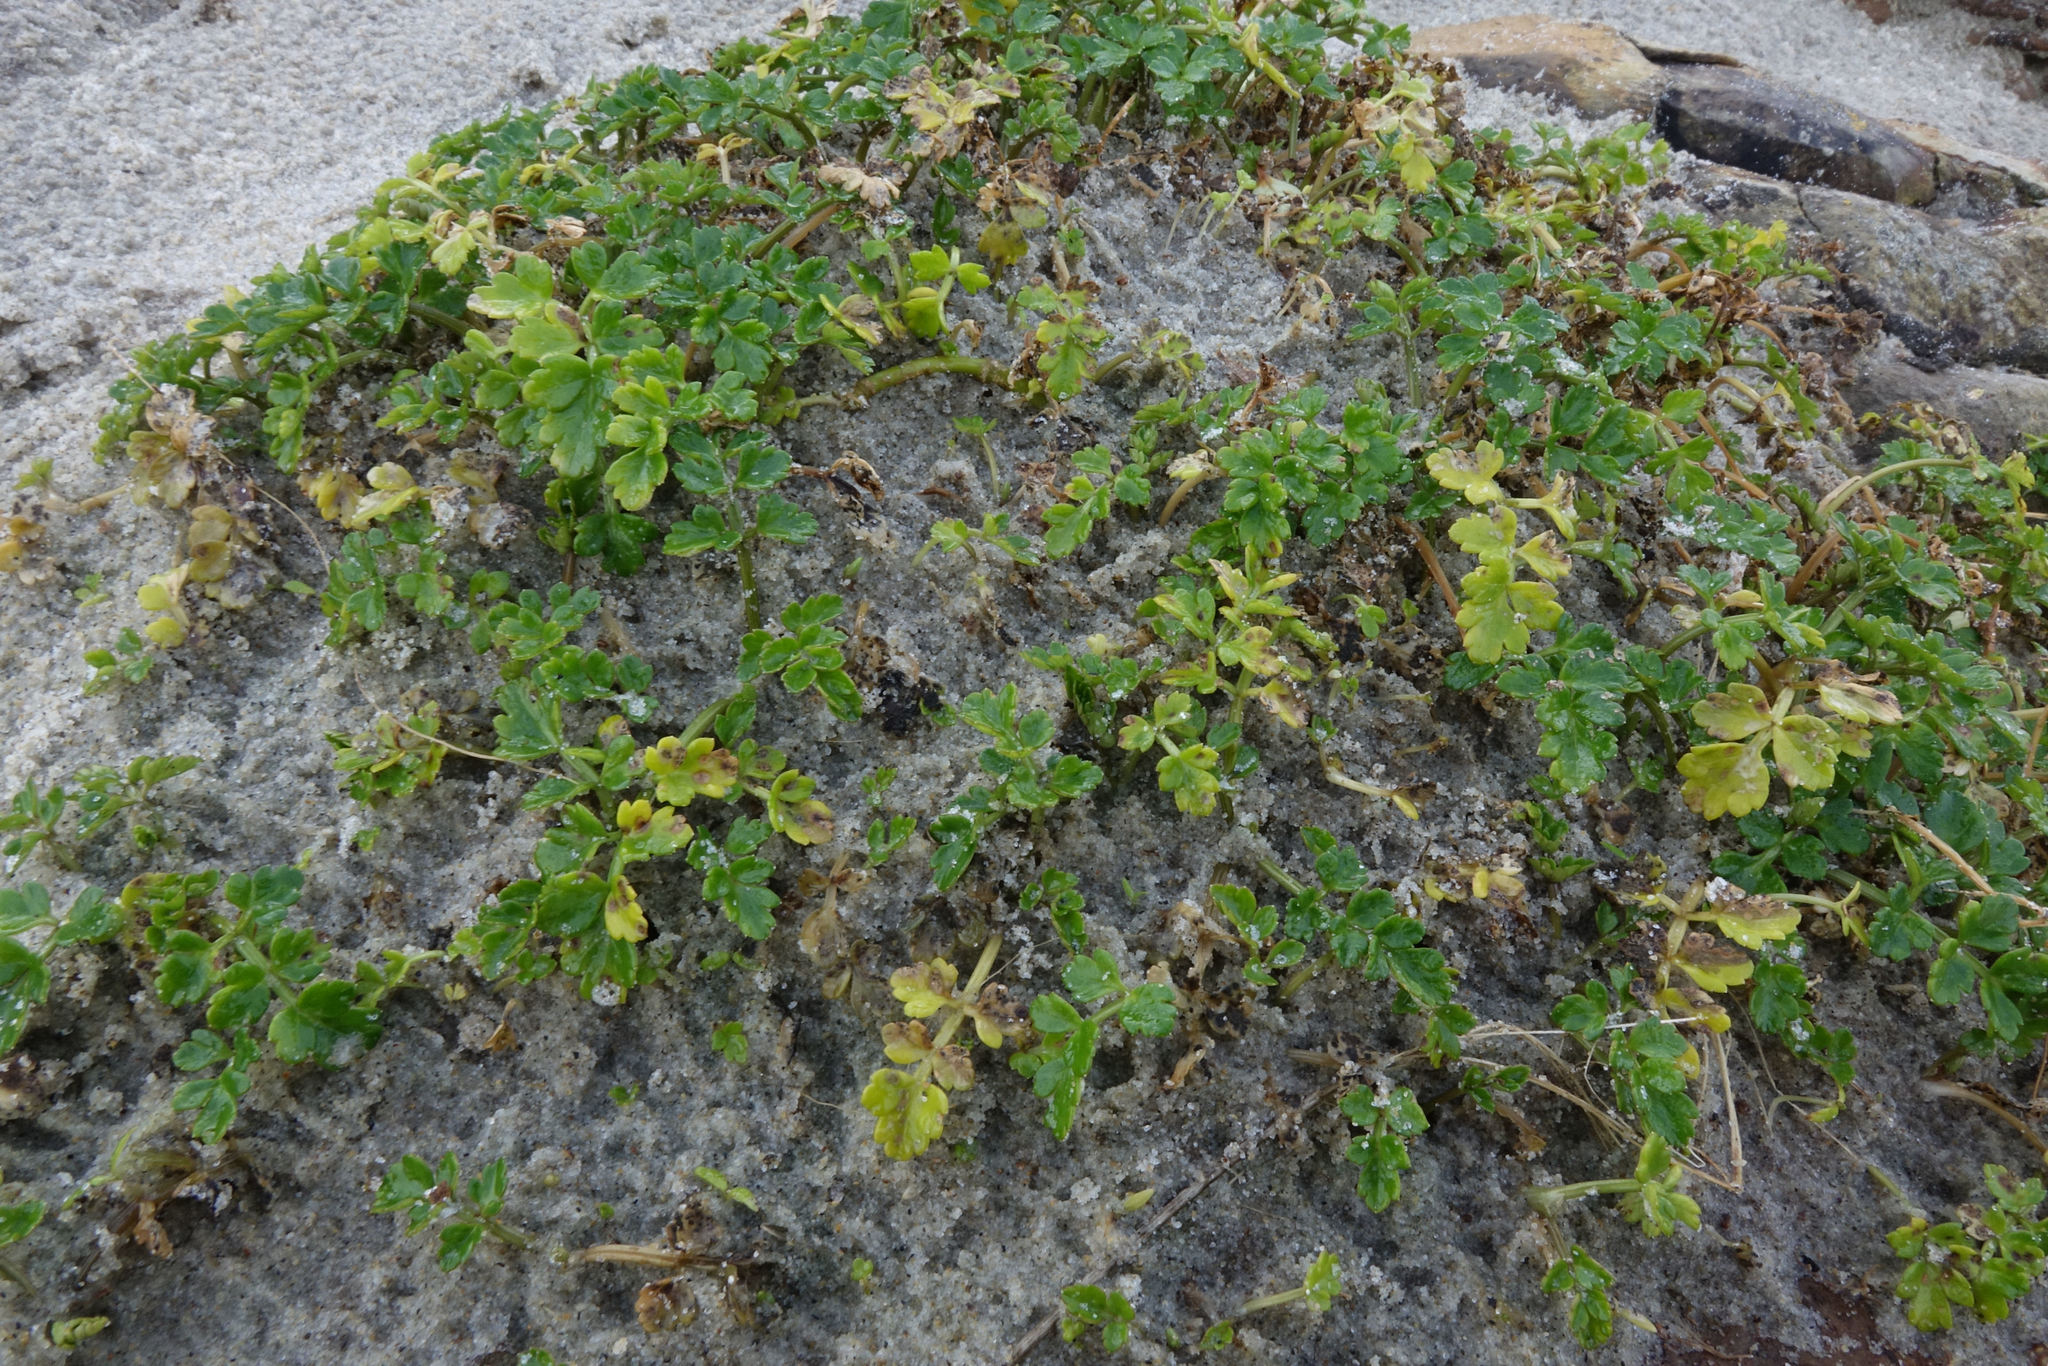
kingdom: Plantae
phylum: Tracheophyta
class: Magnoliopsida
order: Apiales
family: Apiaceae
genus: Apium
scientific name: Apium prostratum
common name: Prostrate marshwort
